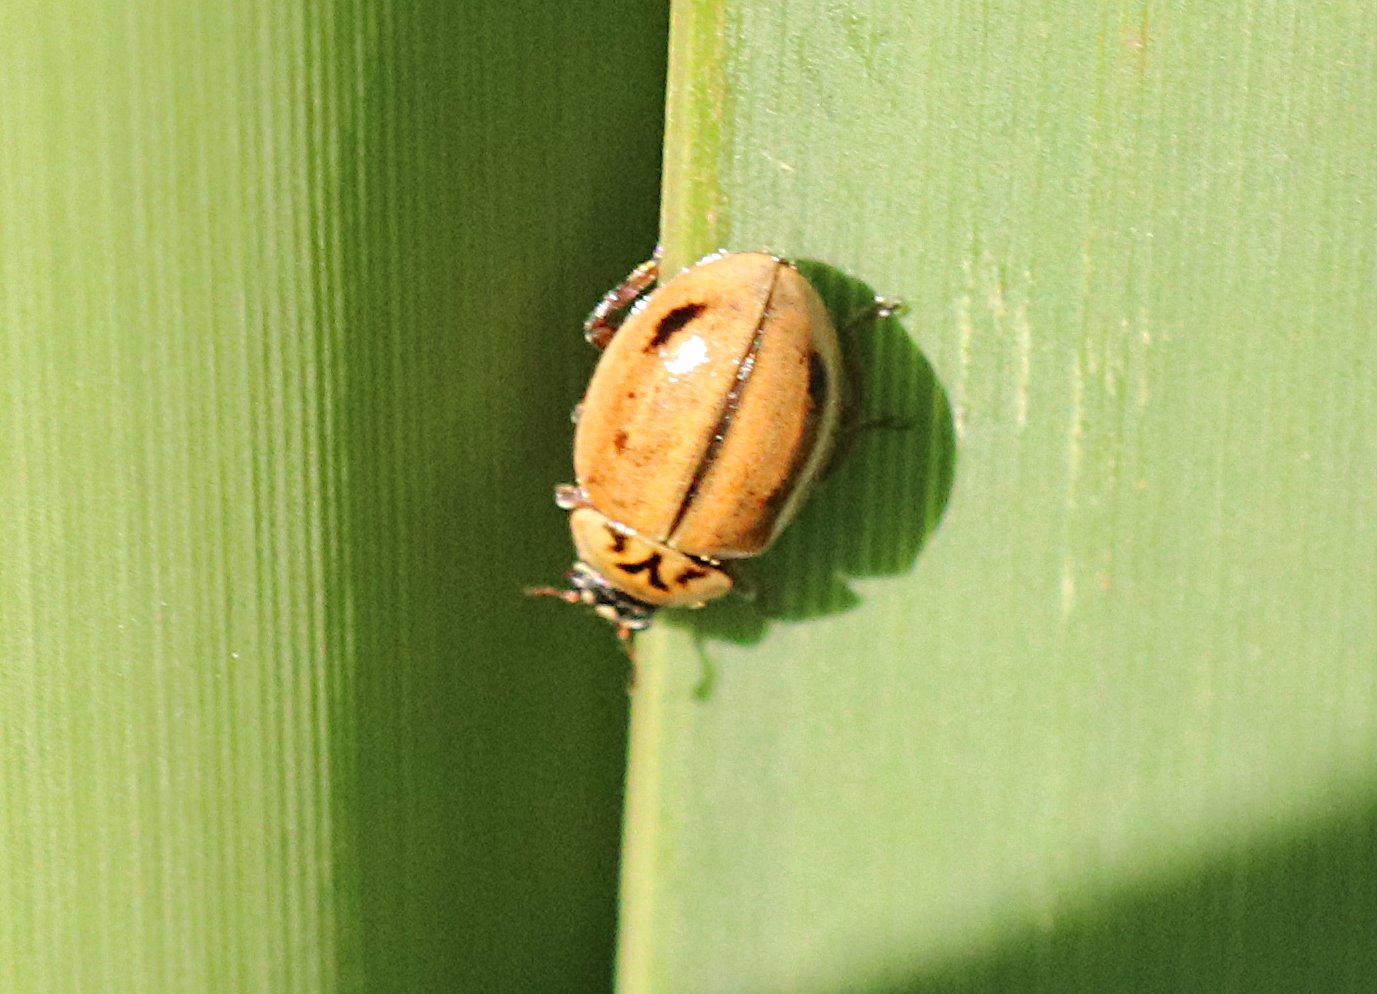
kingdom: Animalia
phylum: Arthropoda
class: Insecta
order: Coleoptera
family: Coccinellidae
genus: Aphidecta
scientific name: Aphidecta obliterata
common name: Larch ladybird
